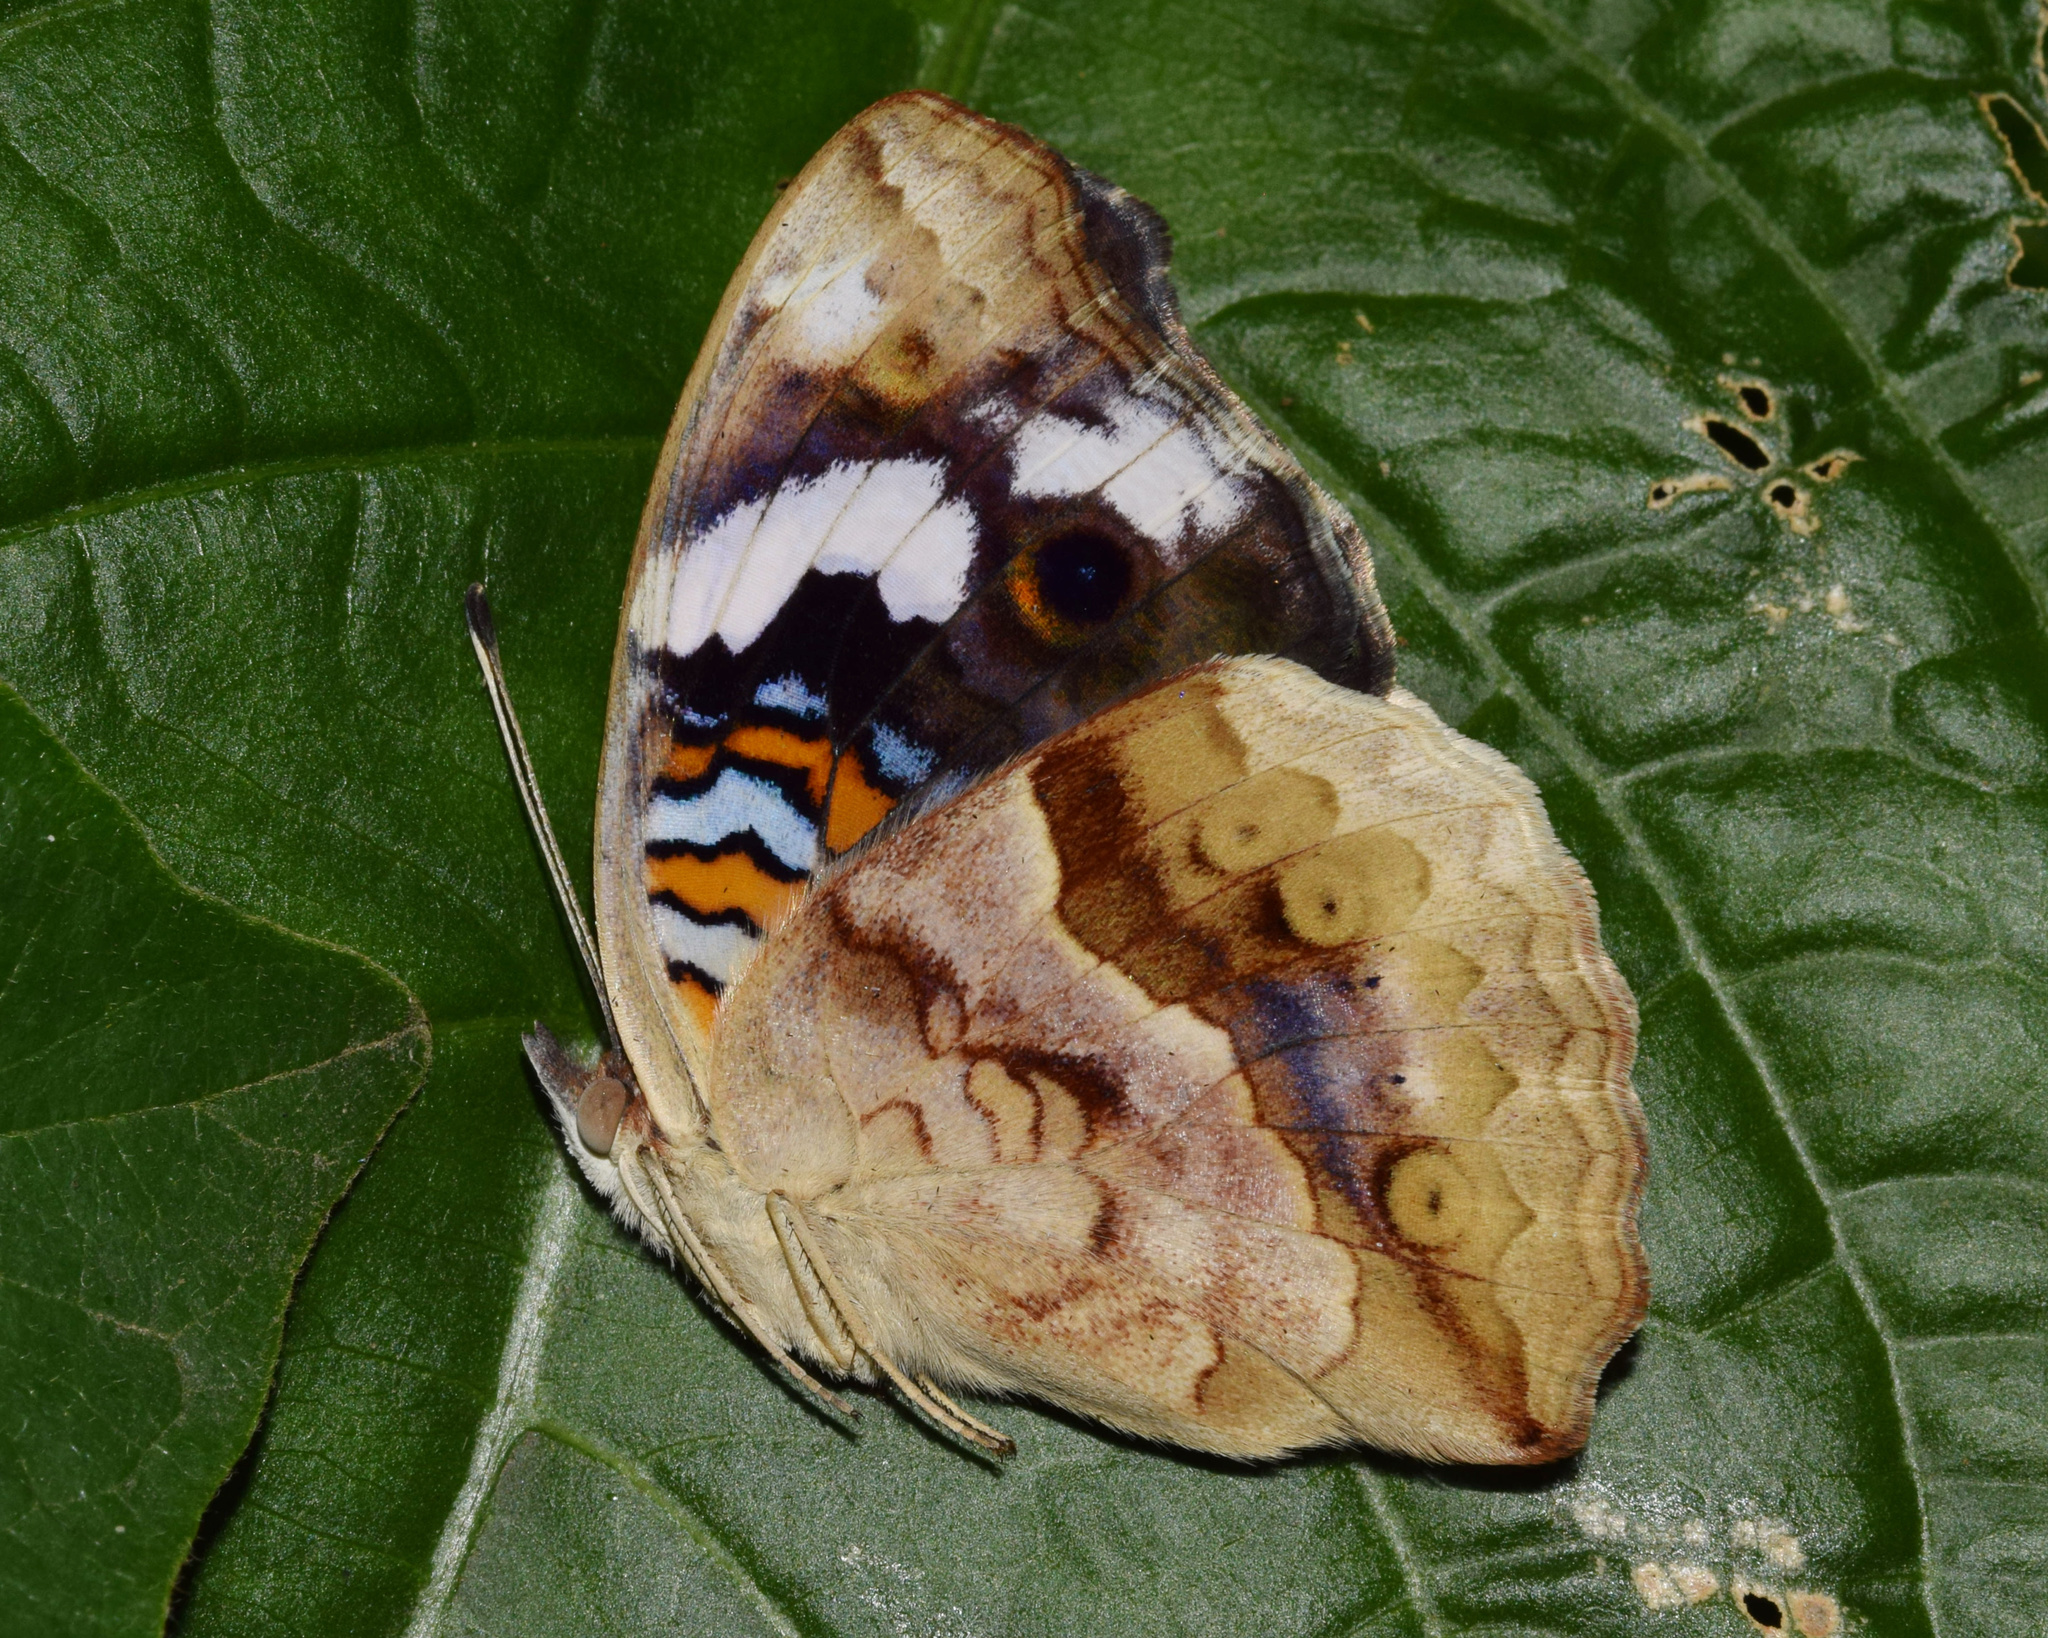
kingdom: Animalia
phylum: Arthropoda
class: Insecta
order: Lepidoptera
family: Nymphalidae
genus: Junonia
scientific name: Junonia oenone
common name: Dark blue pansy
